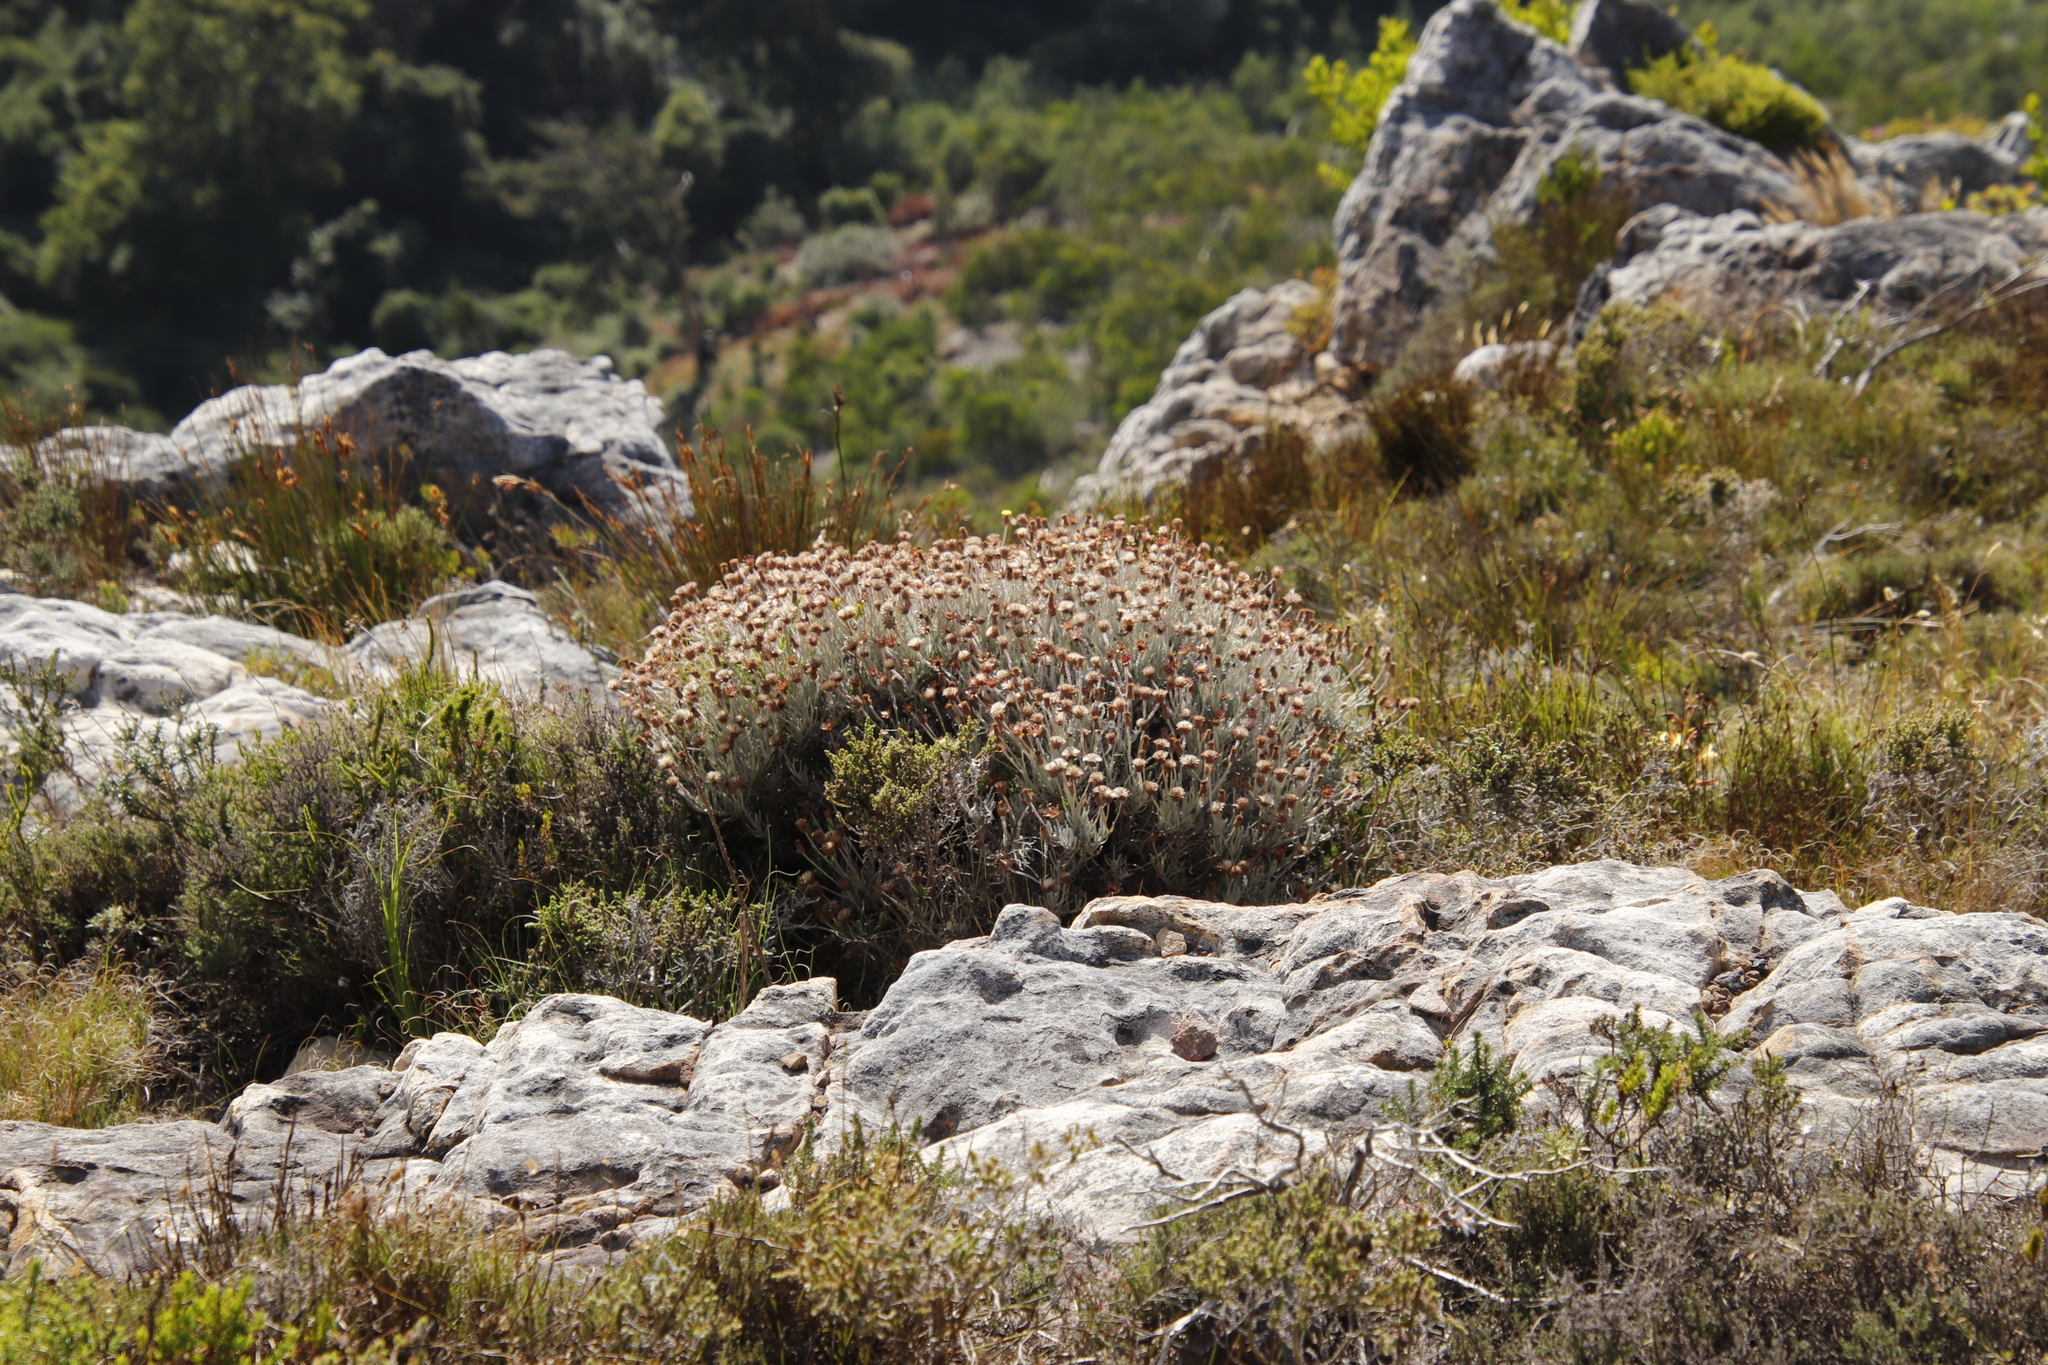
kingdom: Plantae
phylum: Tracheophyta
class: Magnoliopsida
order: Asterales
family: Asteraceae
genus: Syncarpha
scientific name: Syncarpha gnaphaloides
